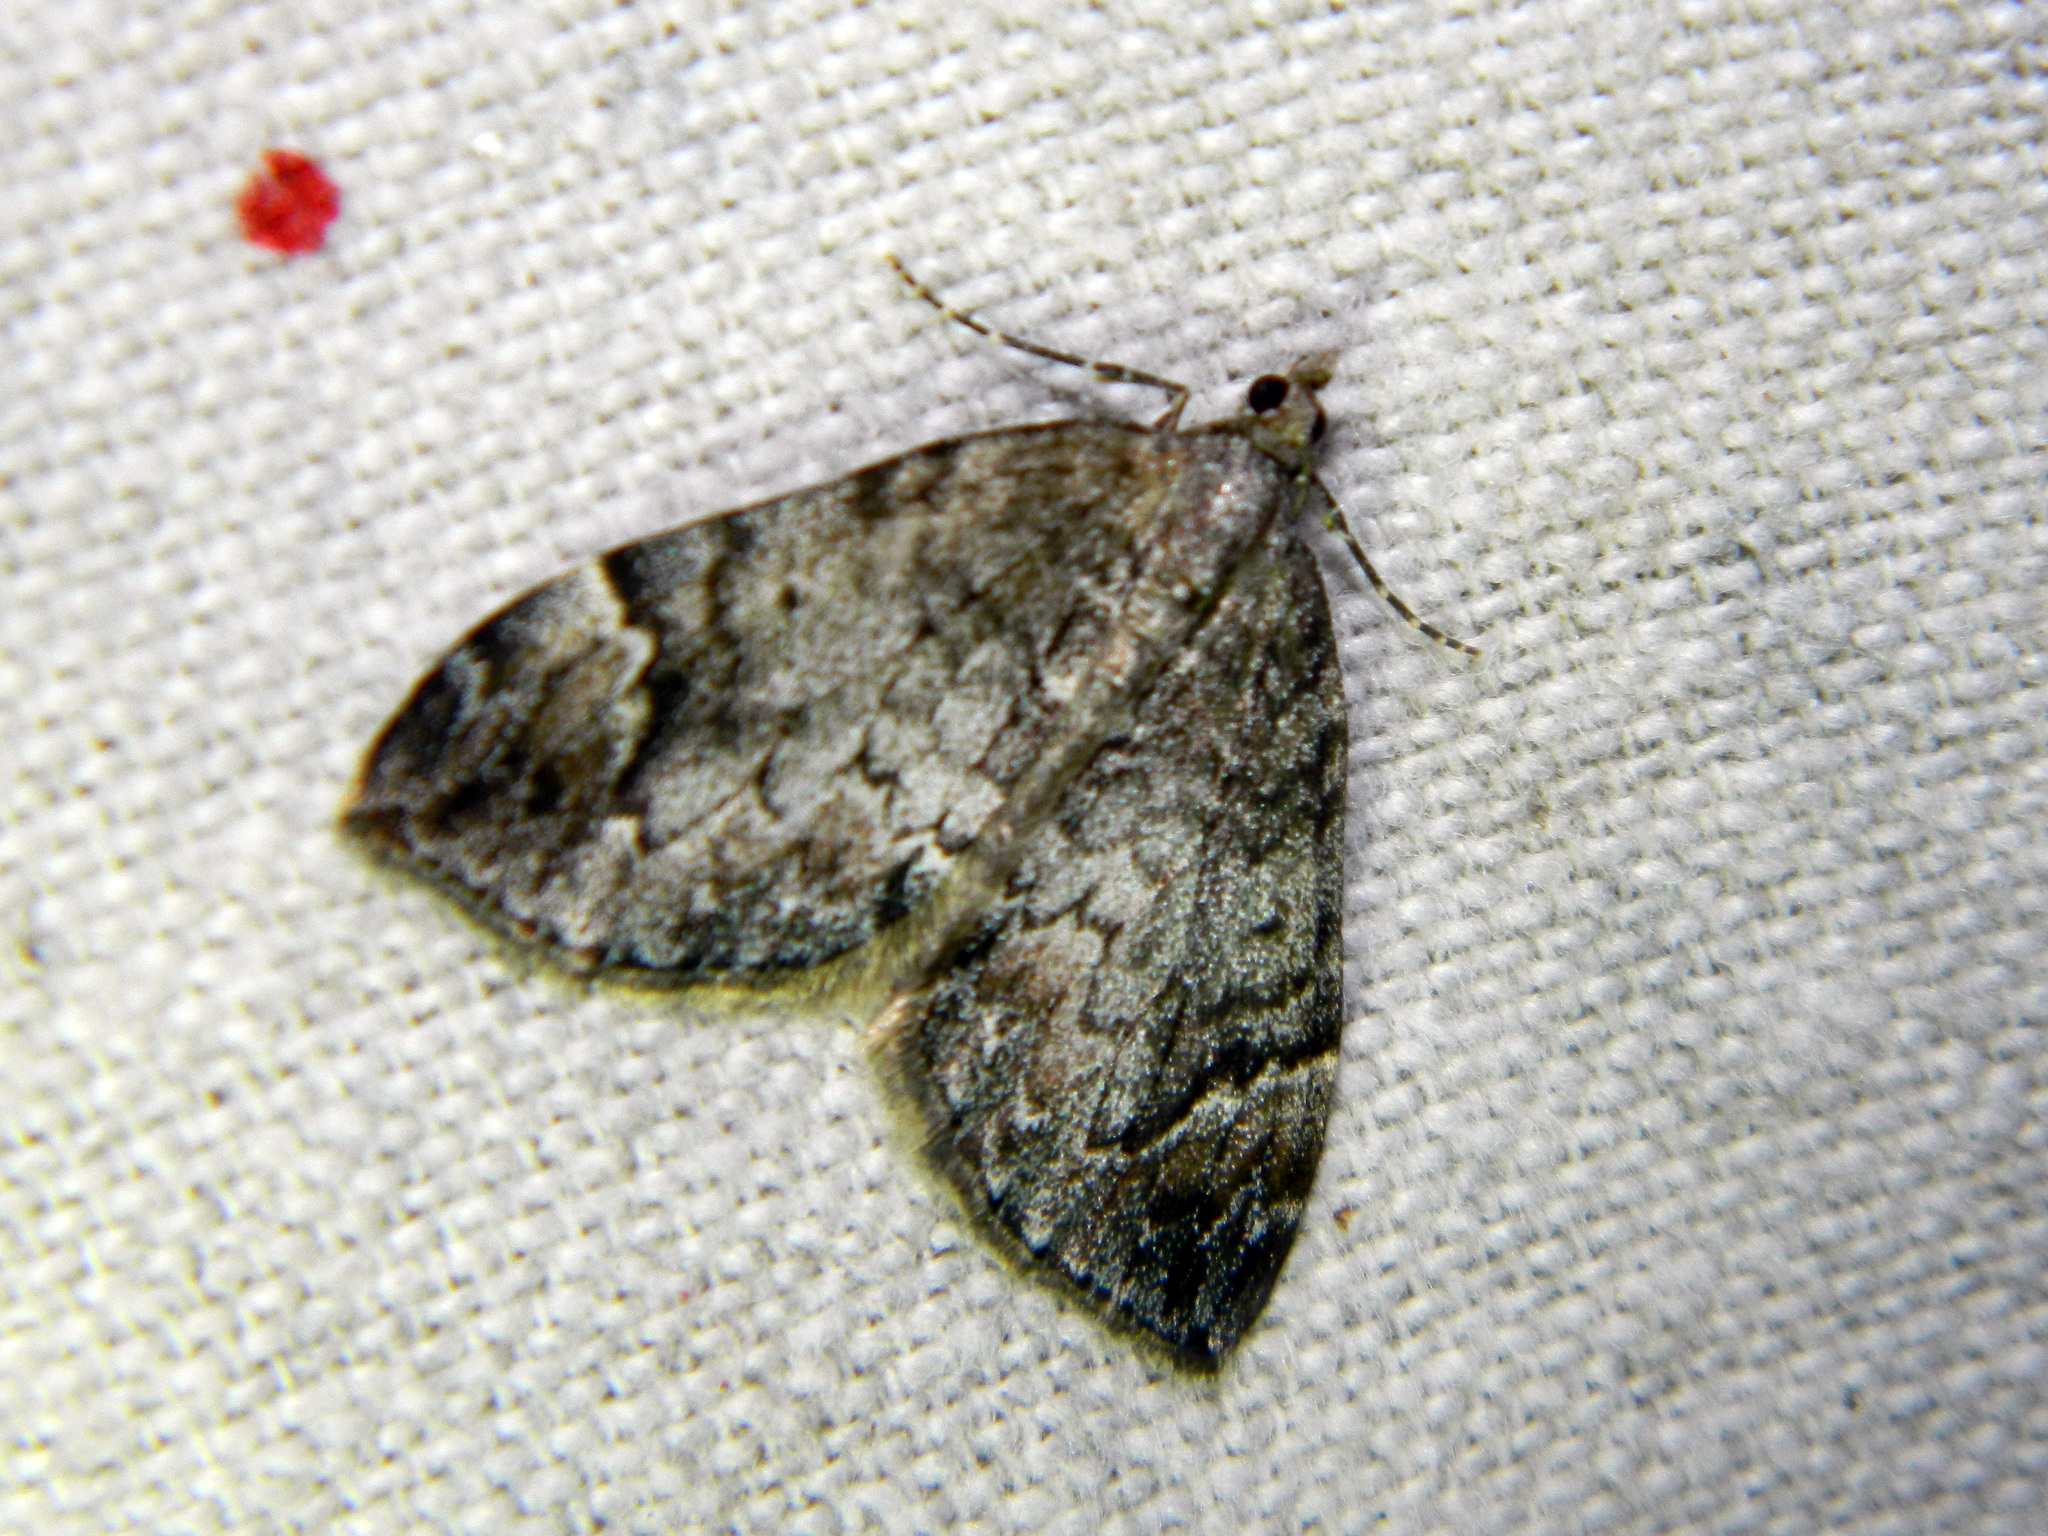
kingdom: Animalia
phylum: Arthropoda
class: Insecta
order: Lepidoptera
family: Geometridae
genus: Dysstroma
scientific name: Dysstroma citrata
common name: Dark marbled carpet
